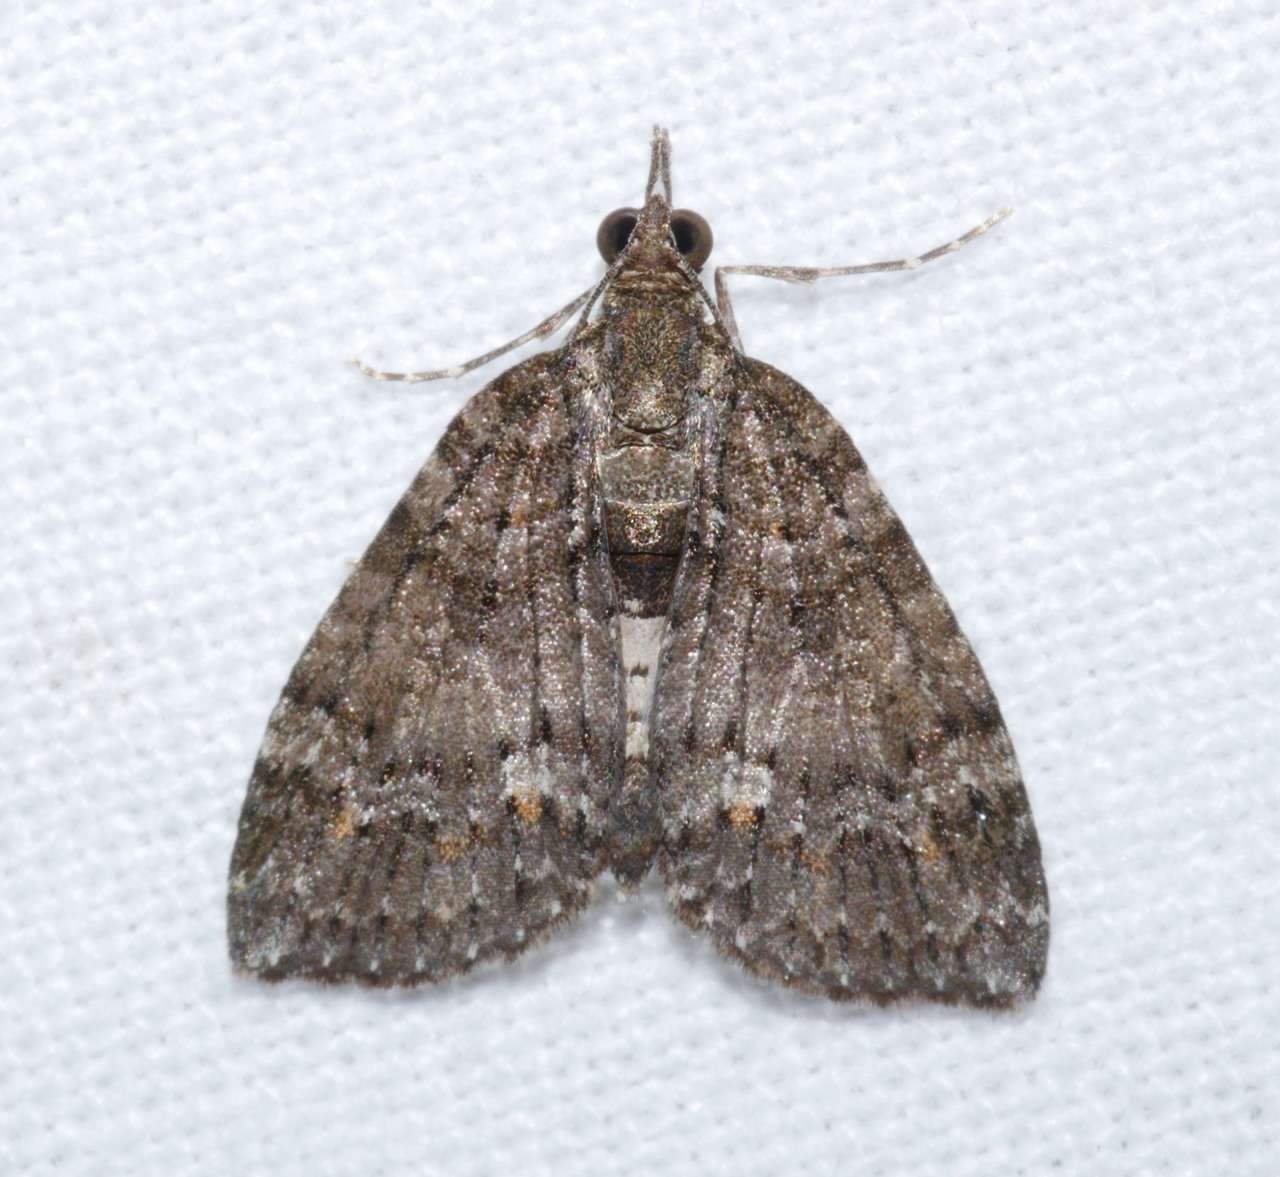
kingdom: Animalia
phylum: Arthropoda
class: Insecta
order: Lepidoptera
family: Geometridae
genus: Microdes
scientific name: Microdes squamulata
